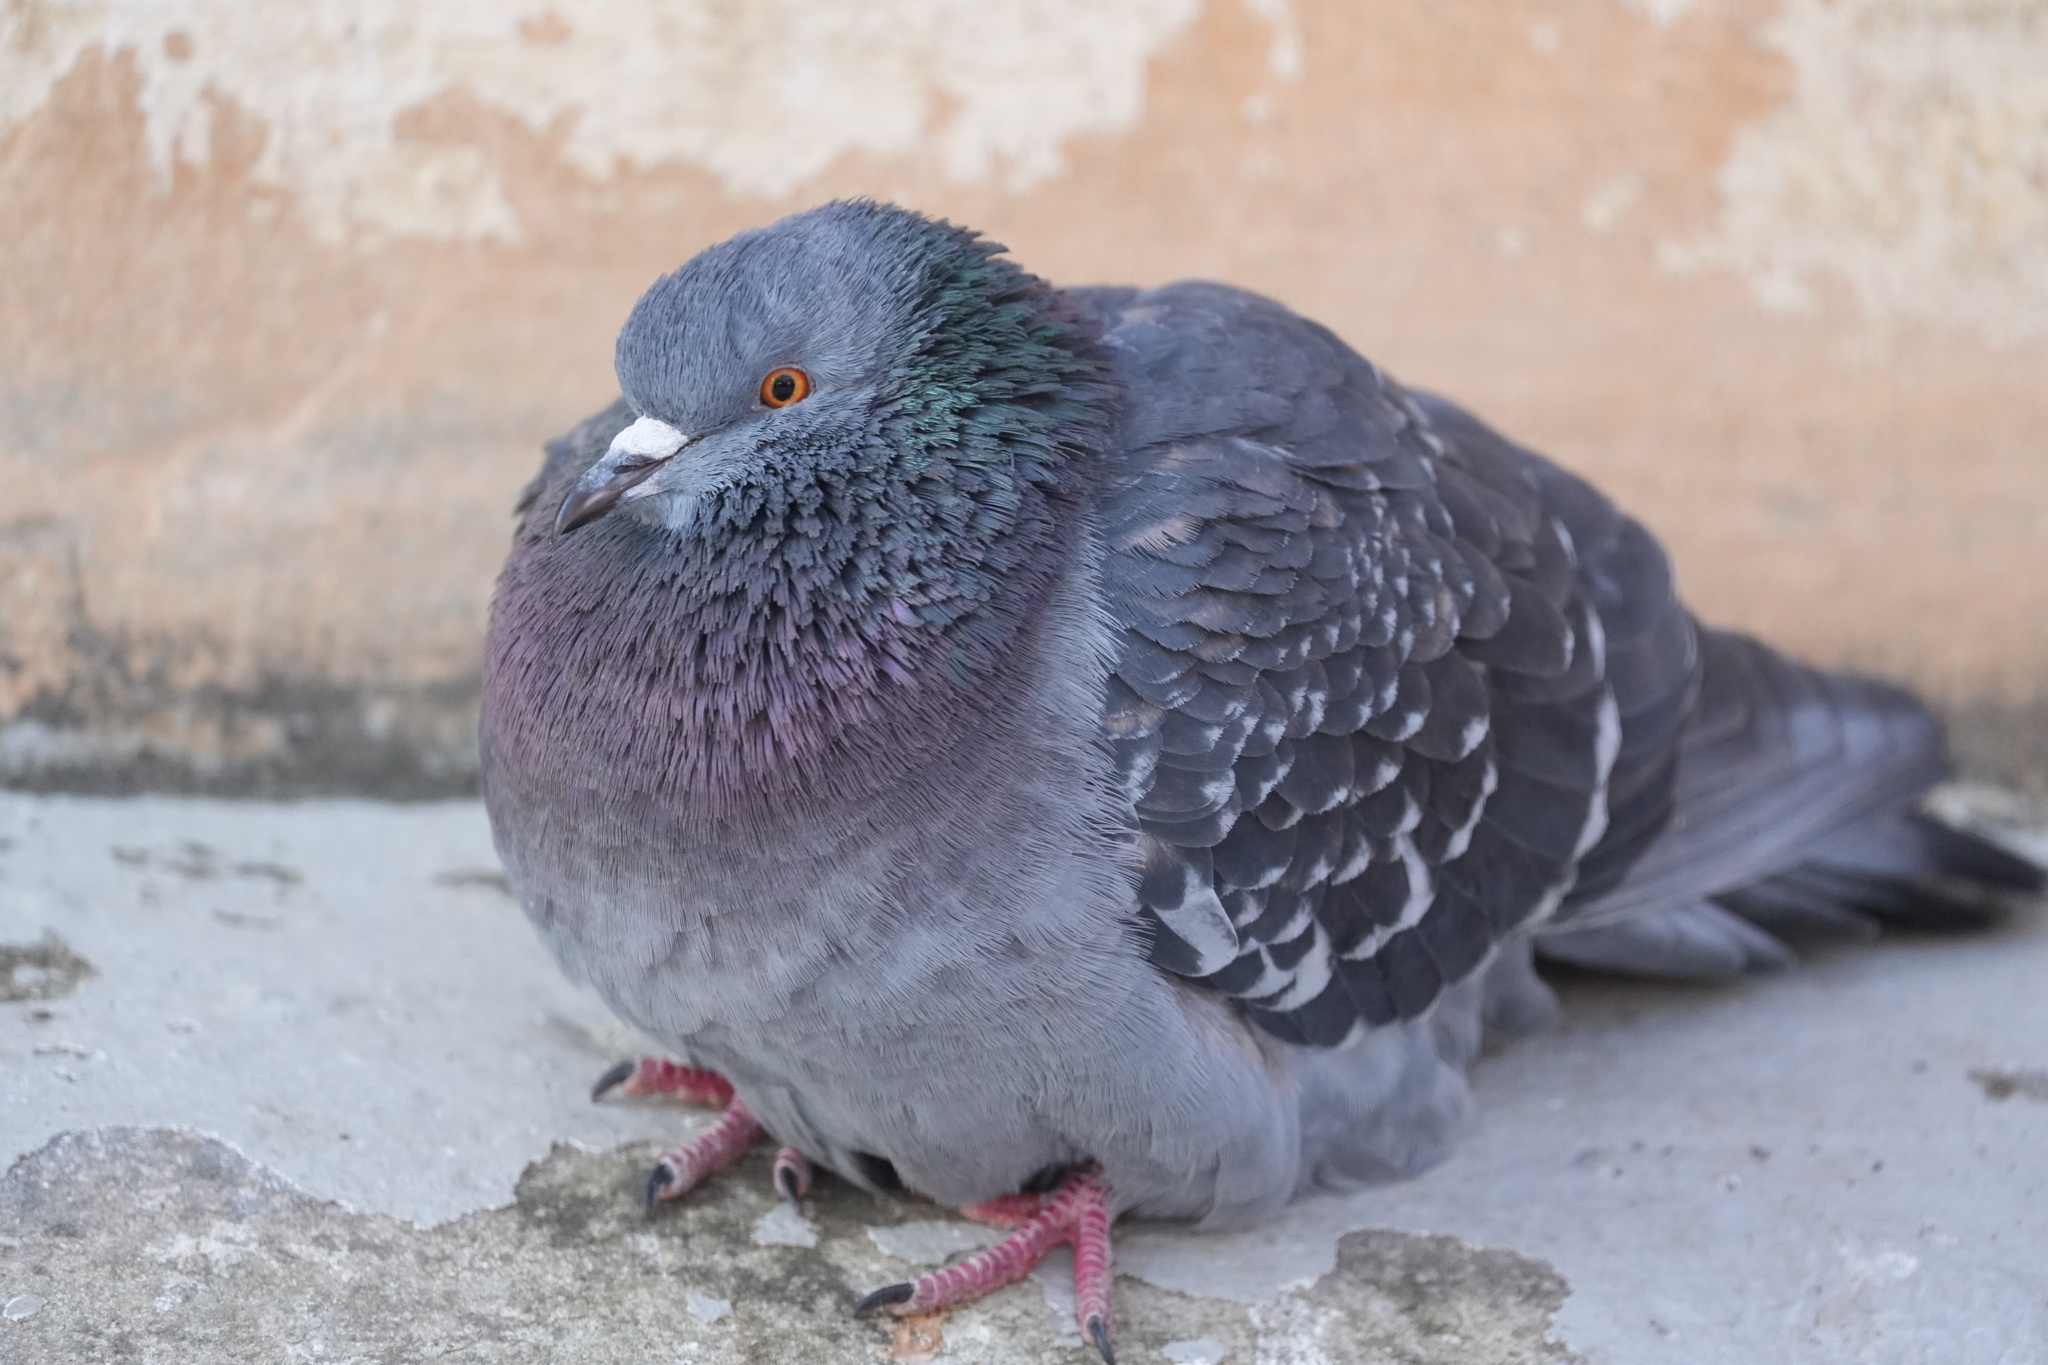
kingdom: Animalia
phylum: Chordata
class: Aves
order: Columbiformes
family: Columbidae
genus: Columba
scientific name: Columba livia
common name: Rock pigeon
